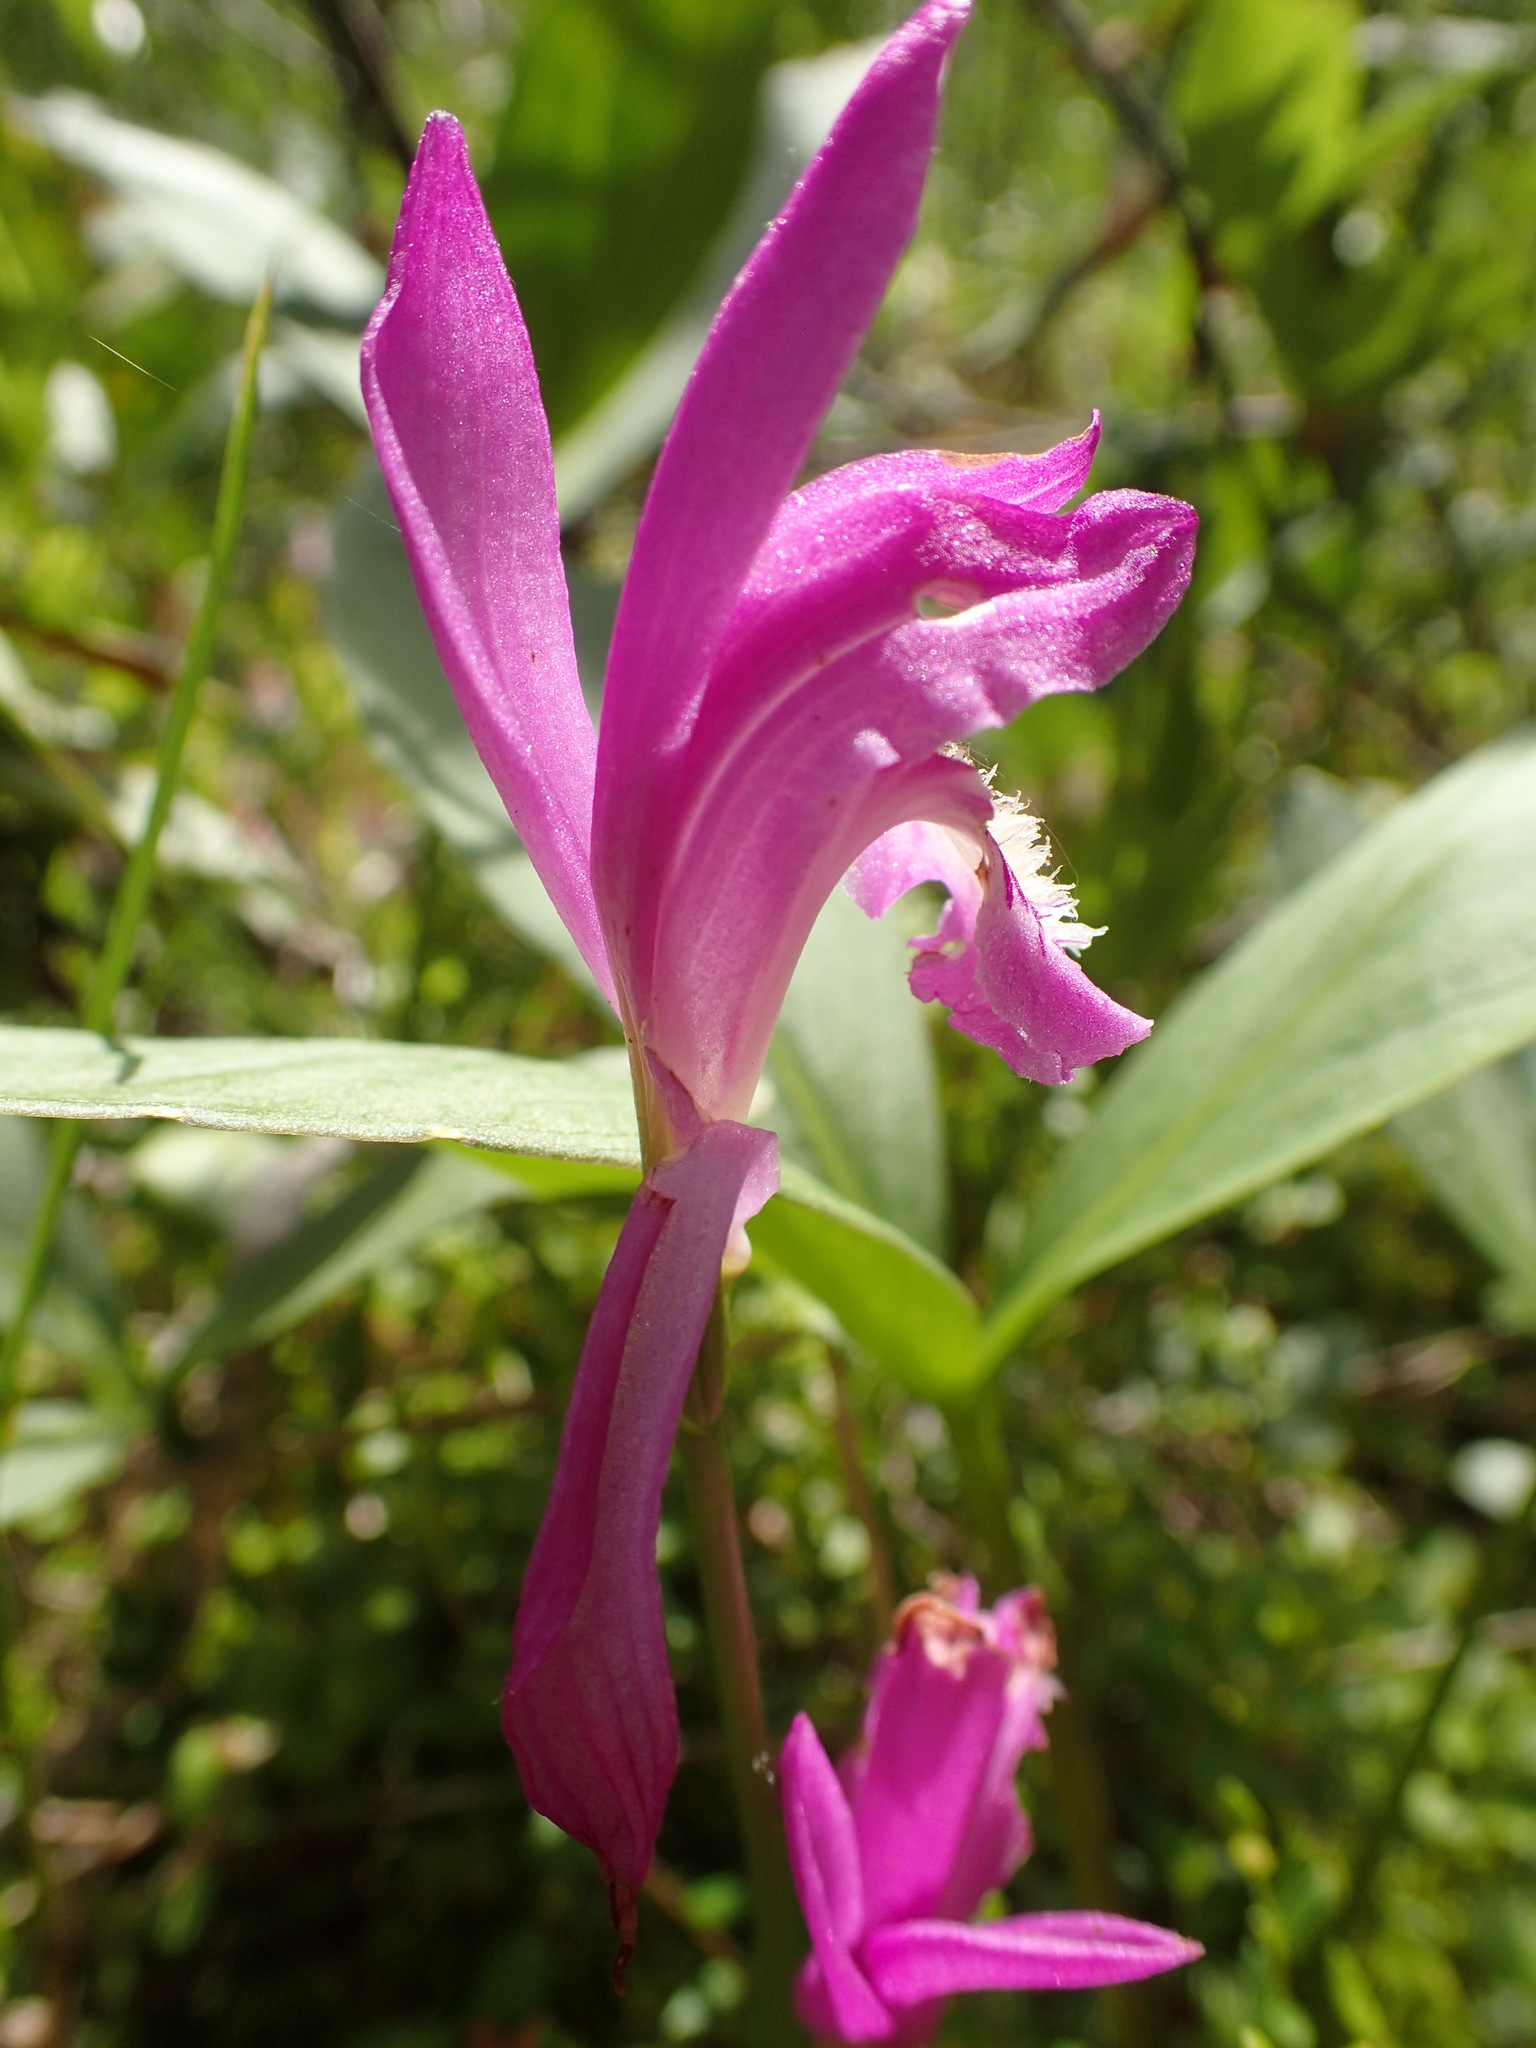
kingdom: Plantae
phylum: Tracheophyta
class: Liliopsida
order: Asparagales
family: Orchidaceae
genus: Arethusa
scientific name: Arethusa bulbosa
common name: Arethusa
